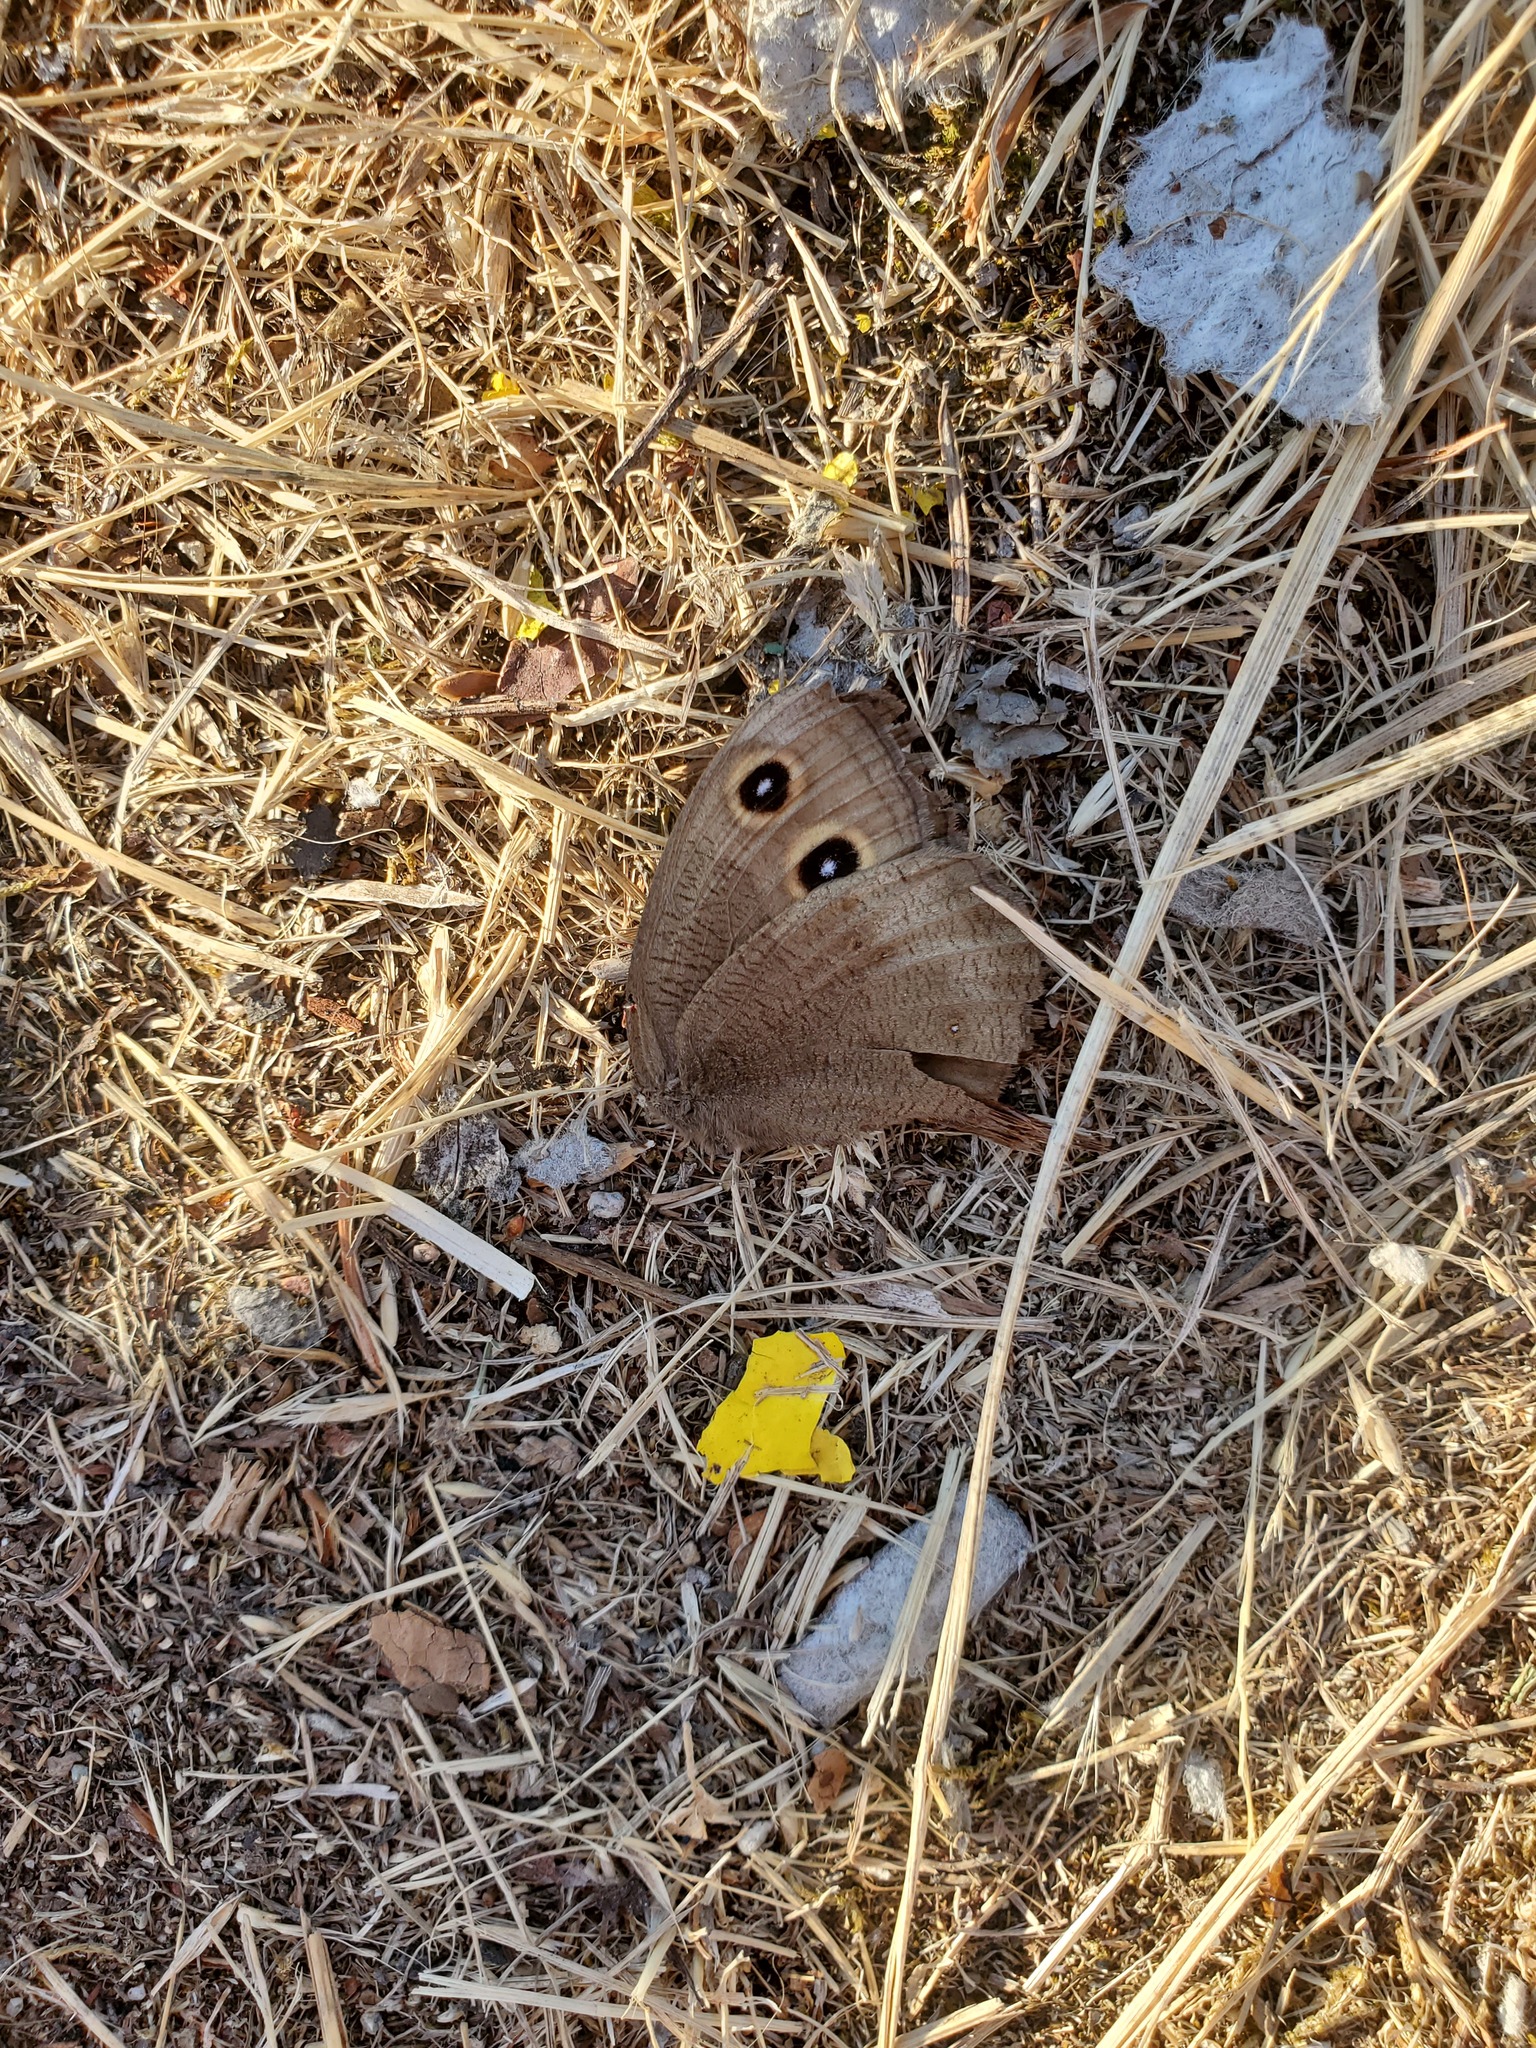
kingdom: Animalia
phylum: Arthropoda
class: Insecta
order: Lepidoptera
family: Nymphalidae
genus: Cercyonis
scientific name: Cercyonis pegala
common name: Common wood-nymph
